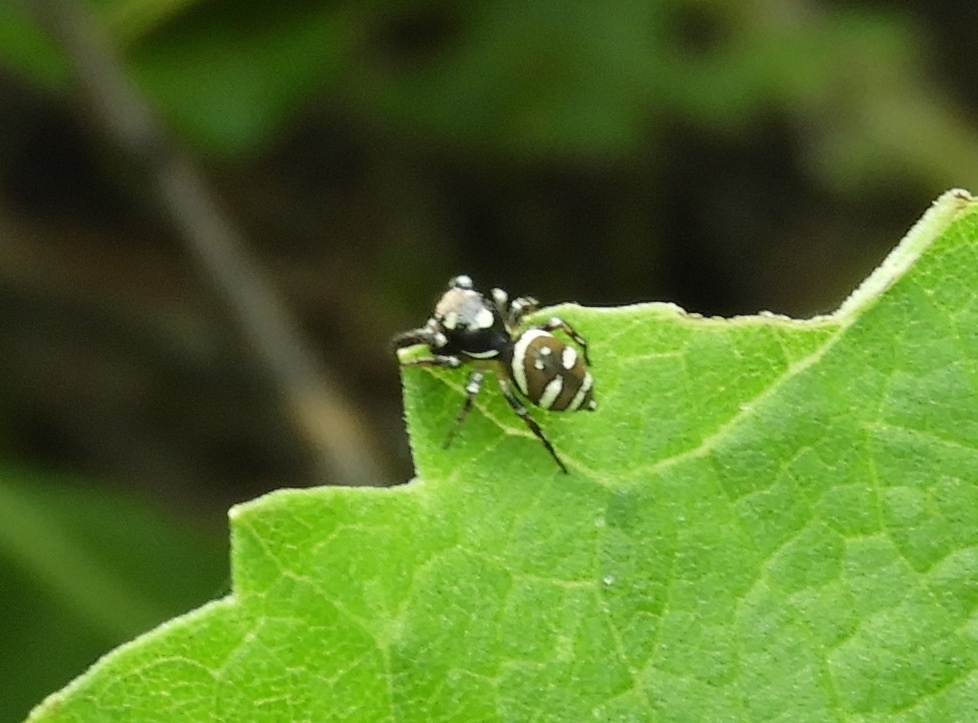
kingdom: Animalia
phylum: Arthropoda
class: Arachnida
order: Araneae
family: Salticidae
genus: Sassacus
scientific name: Sassacus
